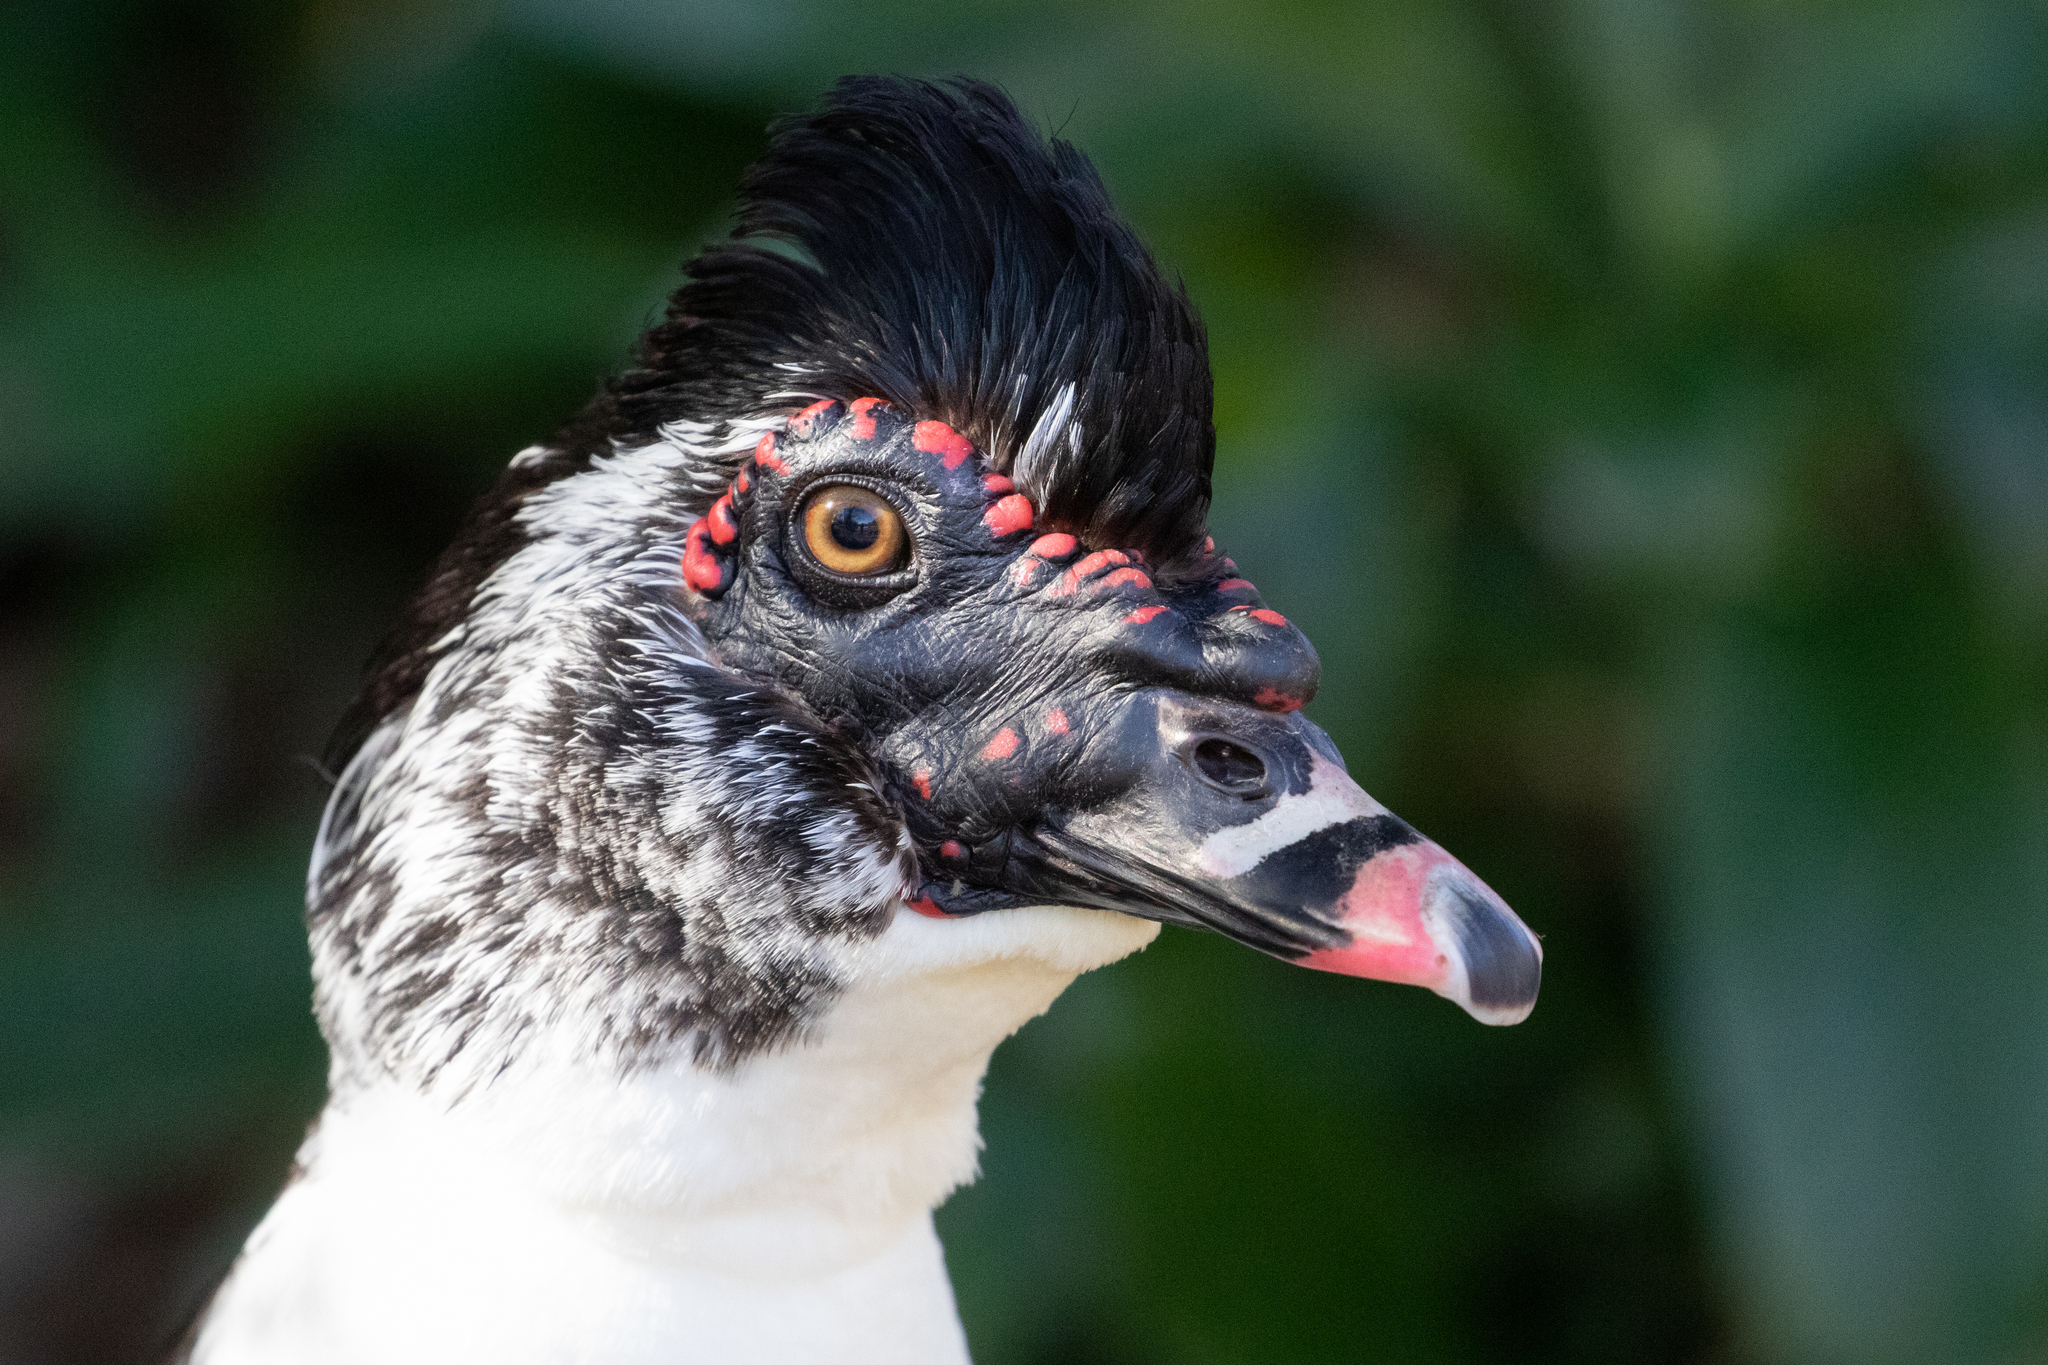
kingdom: Animalia
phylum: Chordata
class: Aves
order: Anseriformes
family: Anatidae
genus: Cairina
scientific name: Cairina moschata
